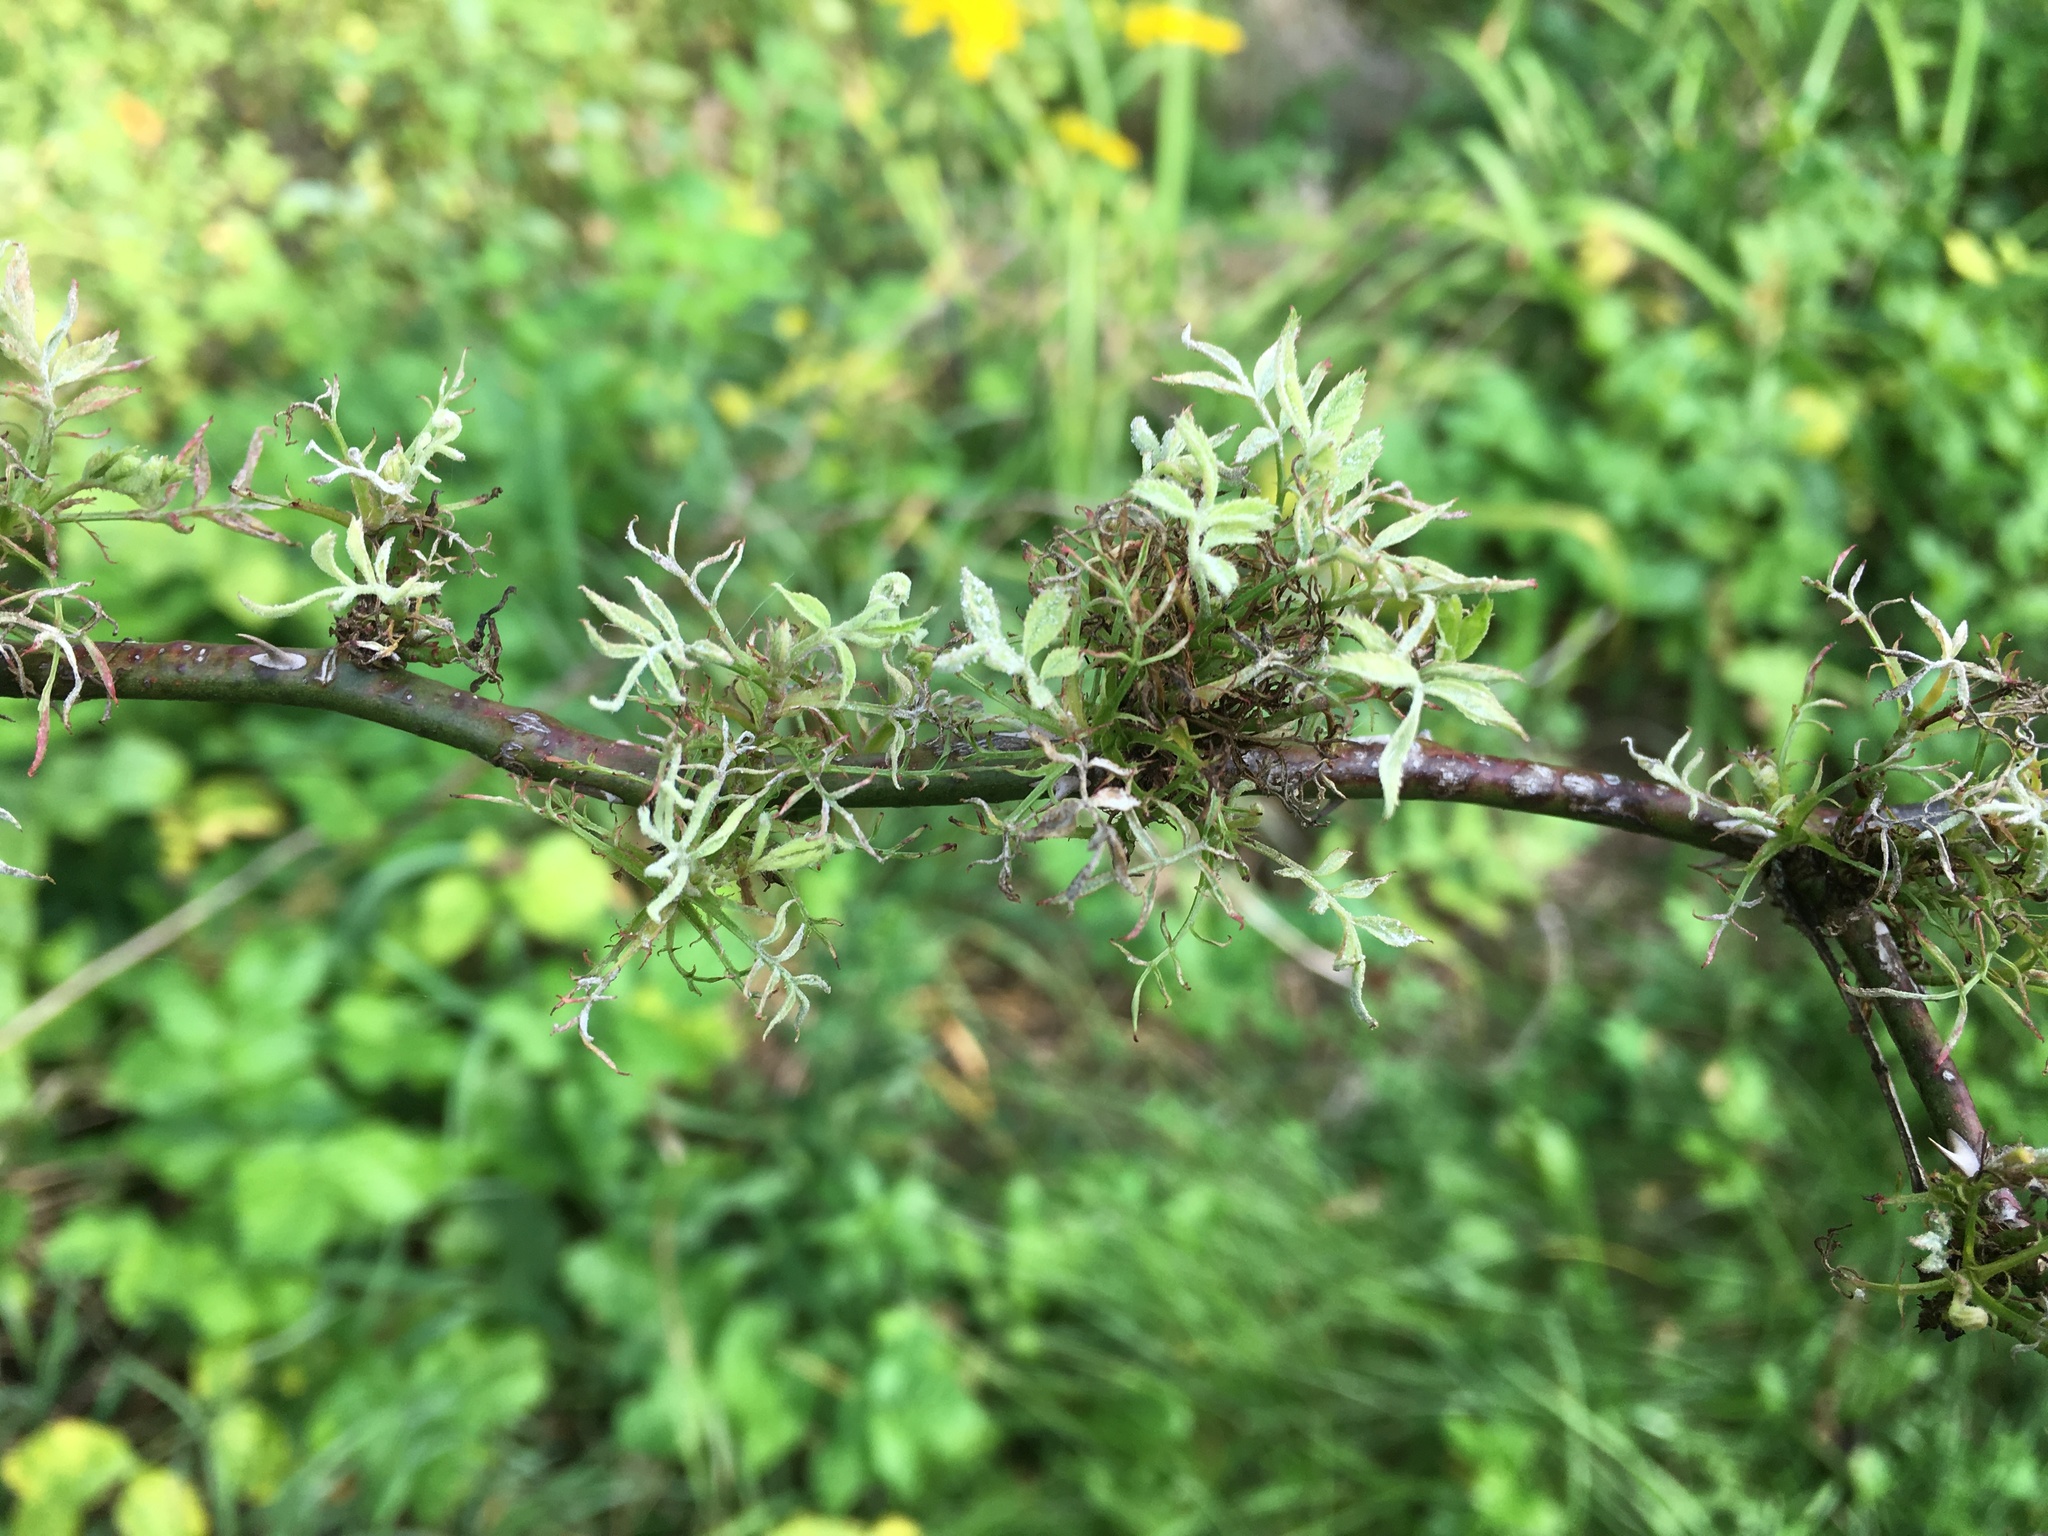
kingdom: Viruses
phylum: Negarnaviricota
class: Ellioviricetes
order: Bunyavirales
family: Fimoviridae
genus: Emaravirus
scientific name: Emaravirus rosae
